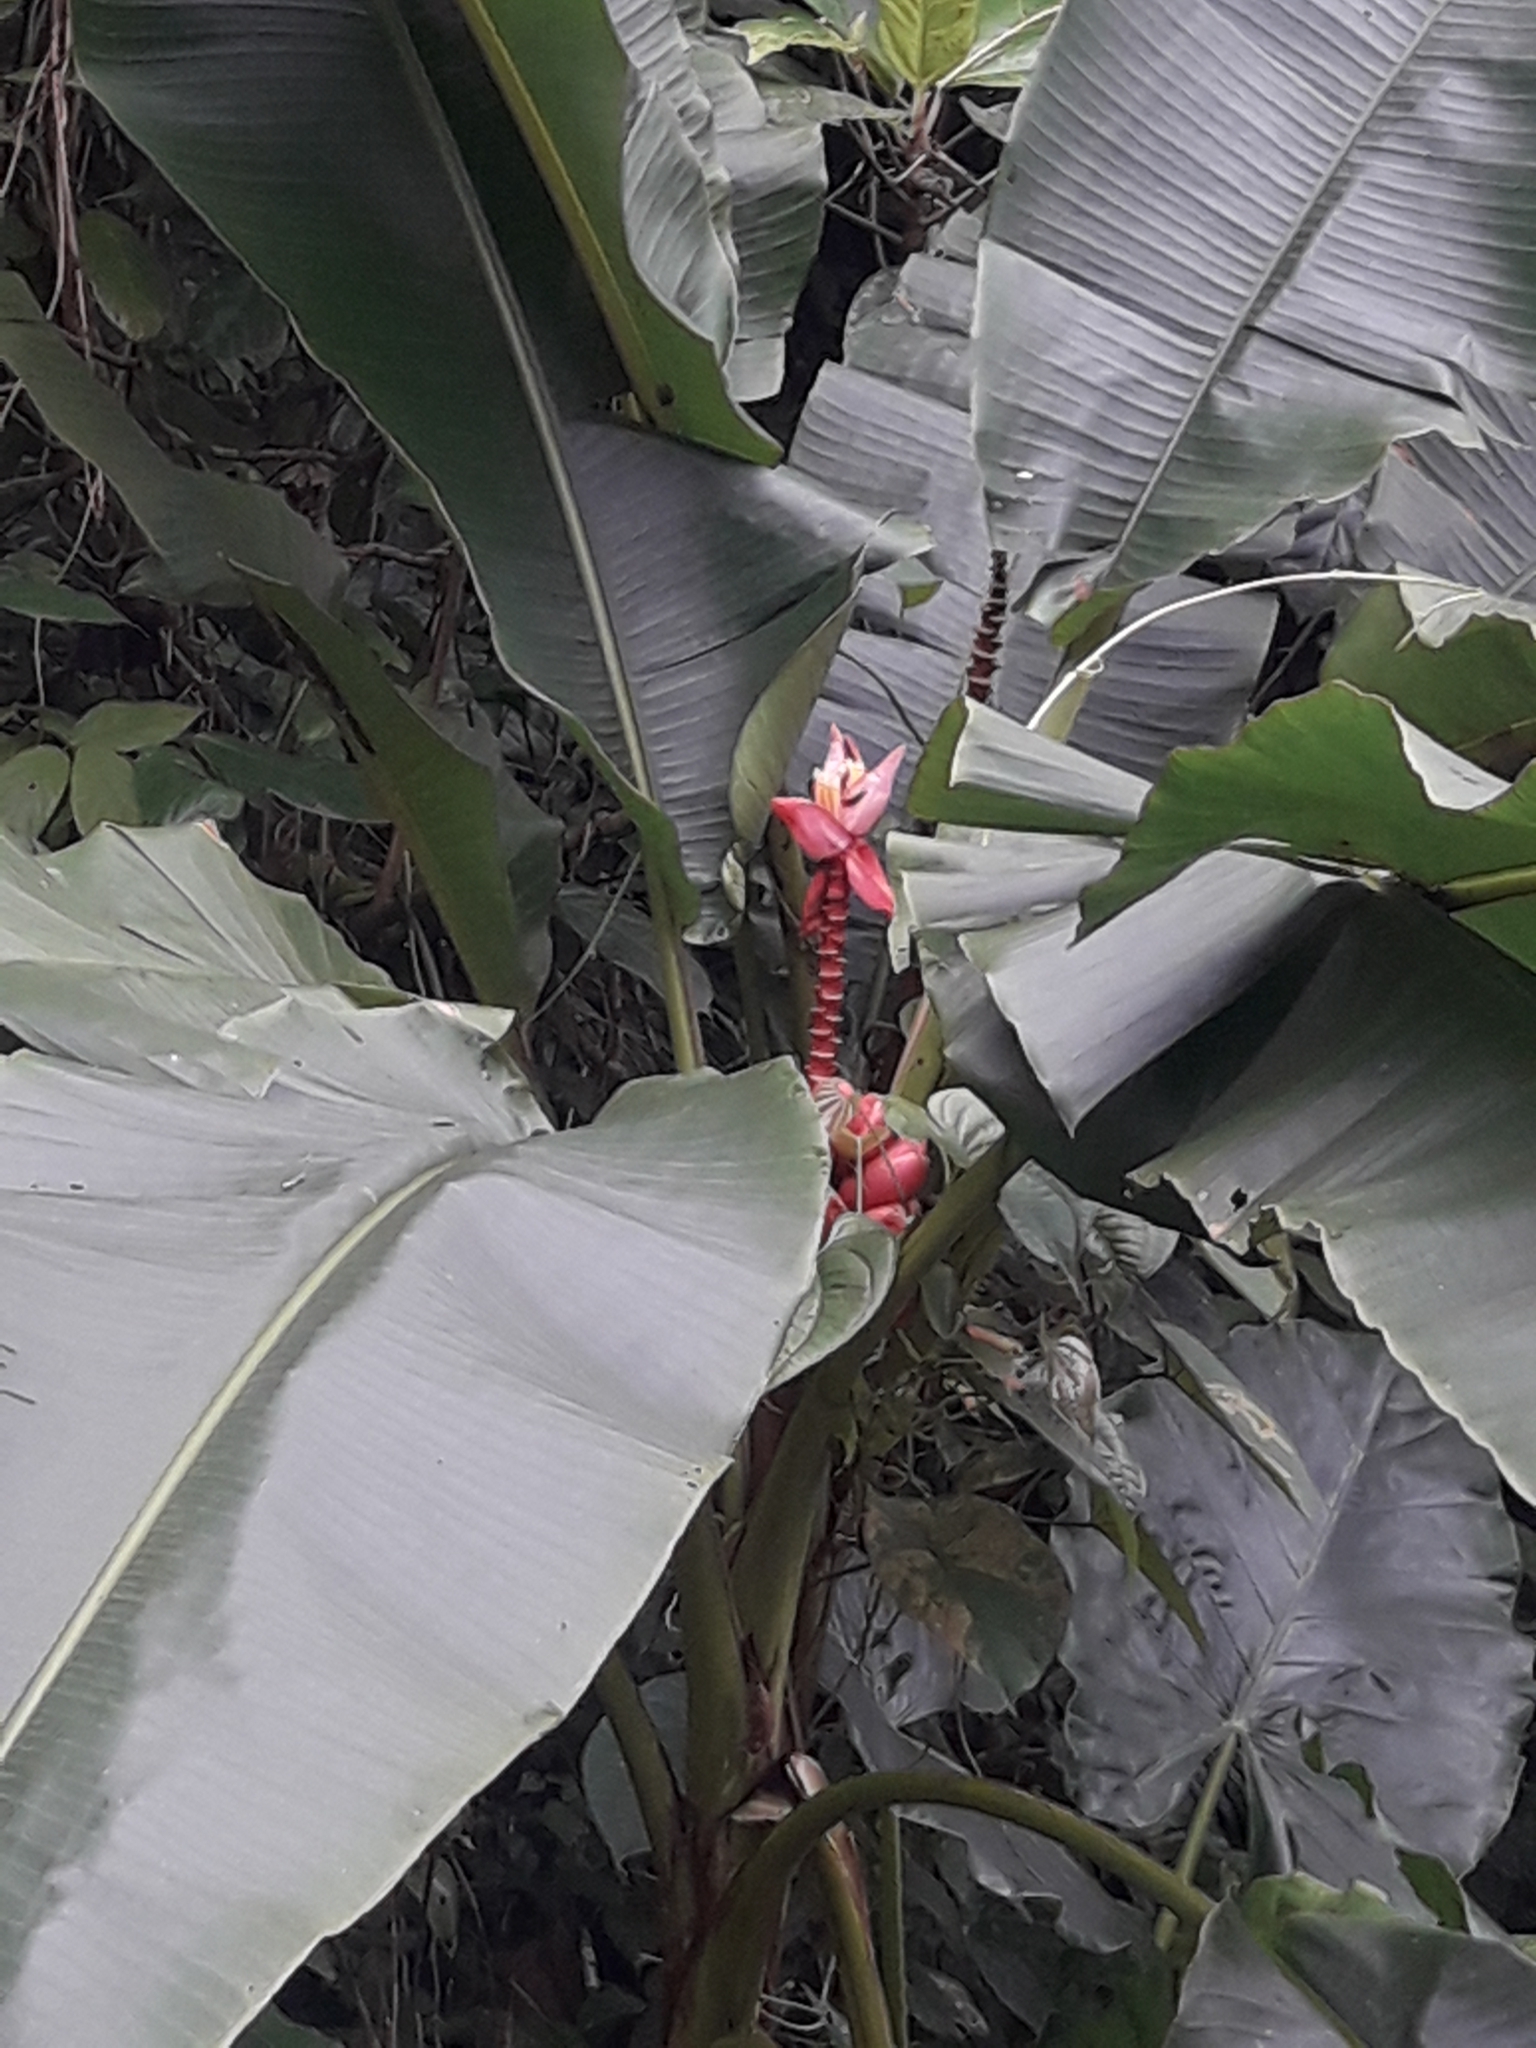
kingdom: Plantae
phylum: Tracheophyta
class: Liliopsida
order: Zingiberales
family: Musaceae
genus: Musa
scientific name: Musa velutina
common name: Pink velvet banana
